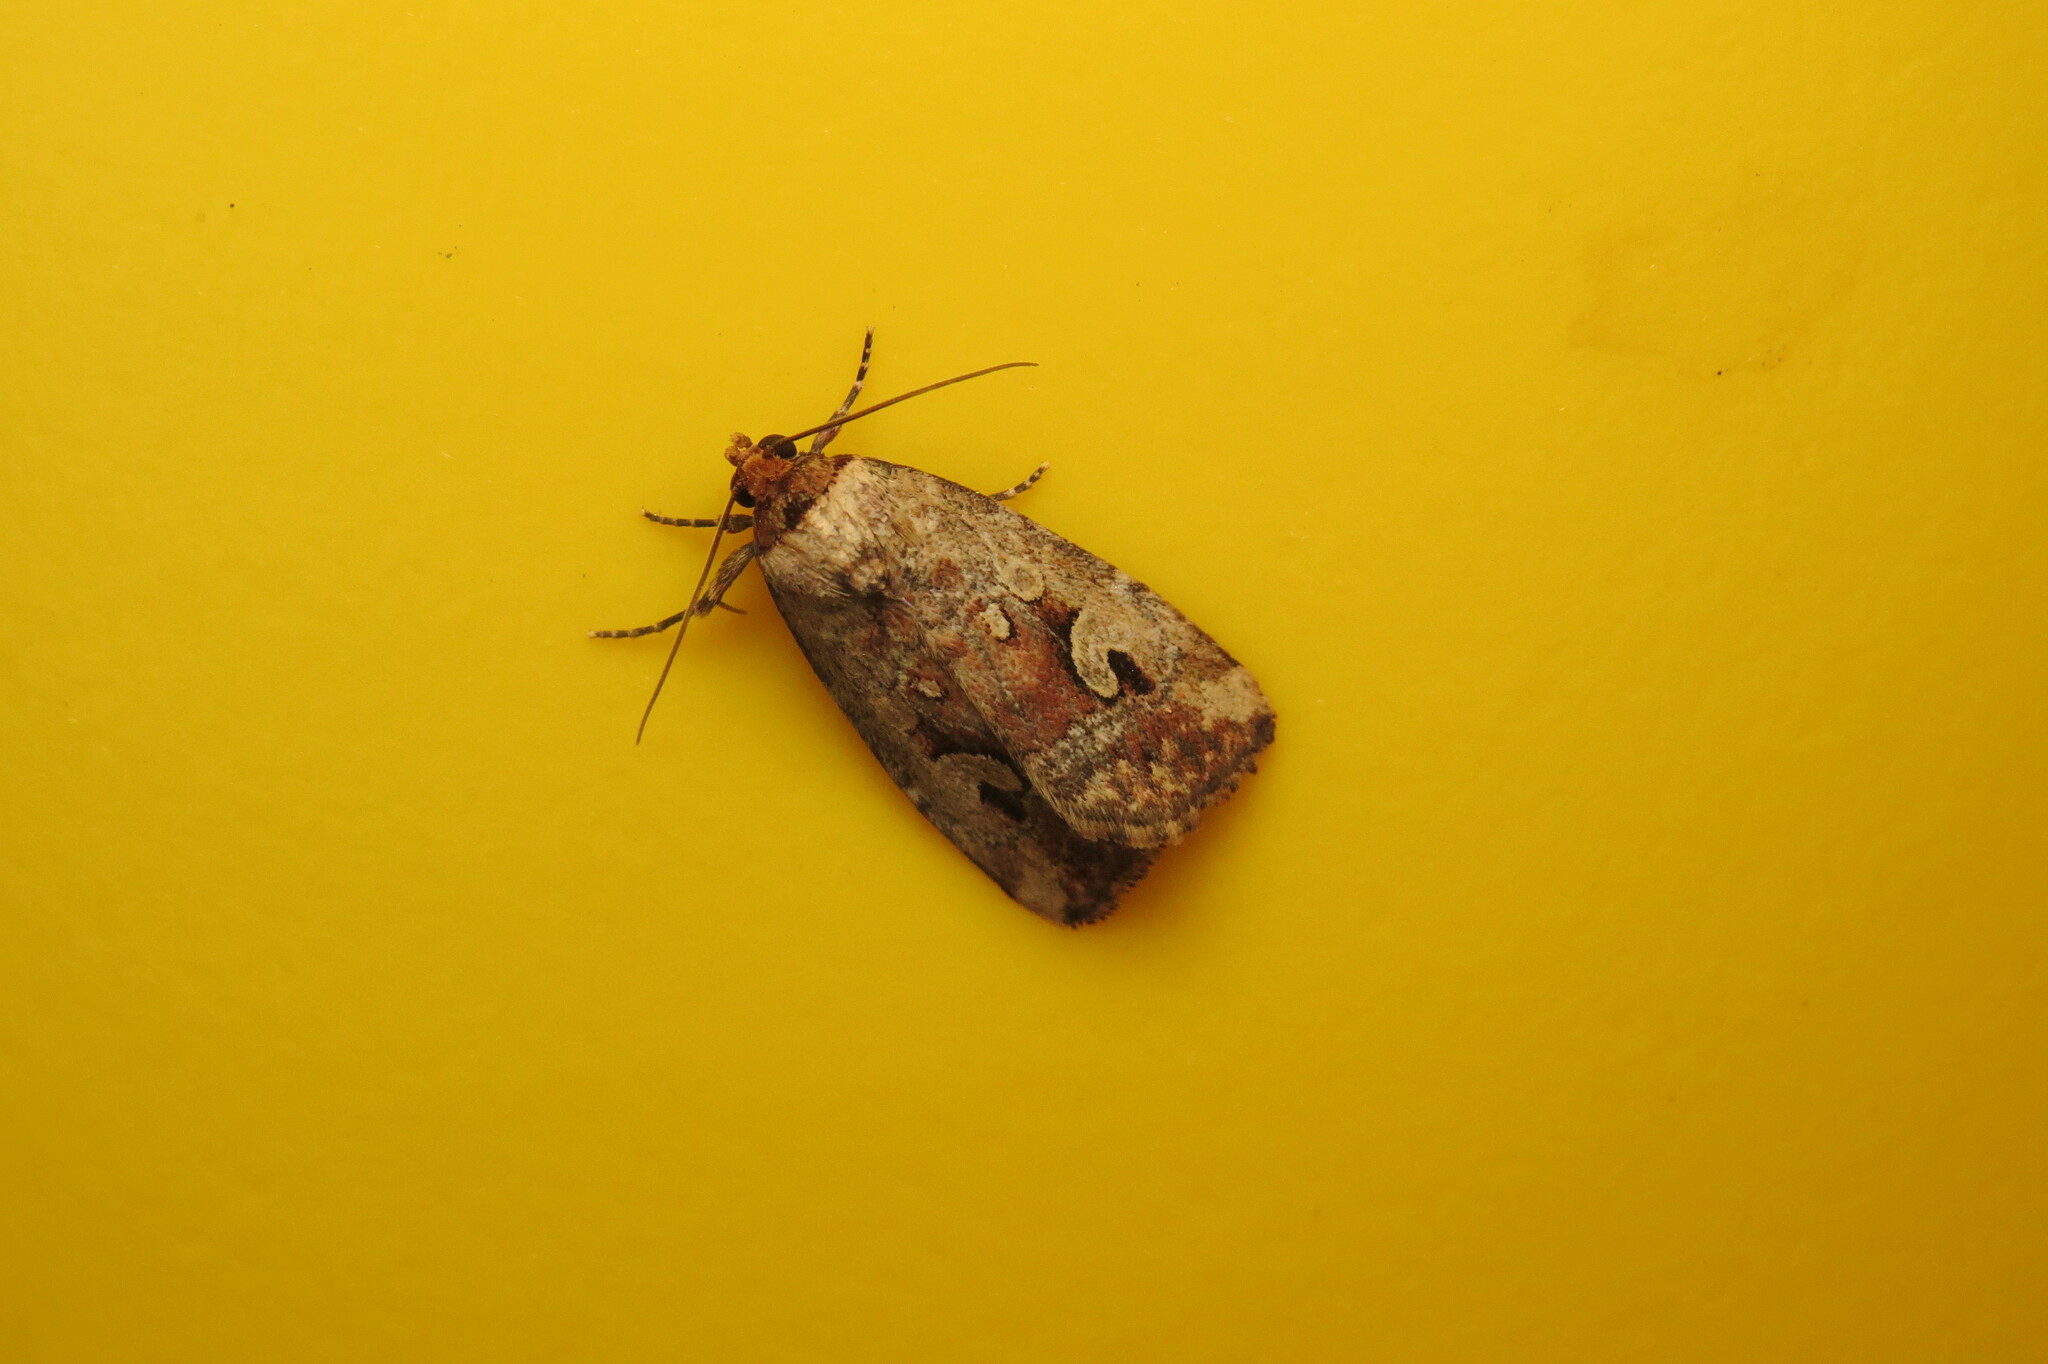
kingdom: Animalia
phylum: Arthropoda
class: Insecta
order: Lepidoptera
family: Noctuidae
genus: Elaphria
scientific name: Elaphria alapallida
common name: Pale-winged midget
